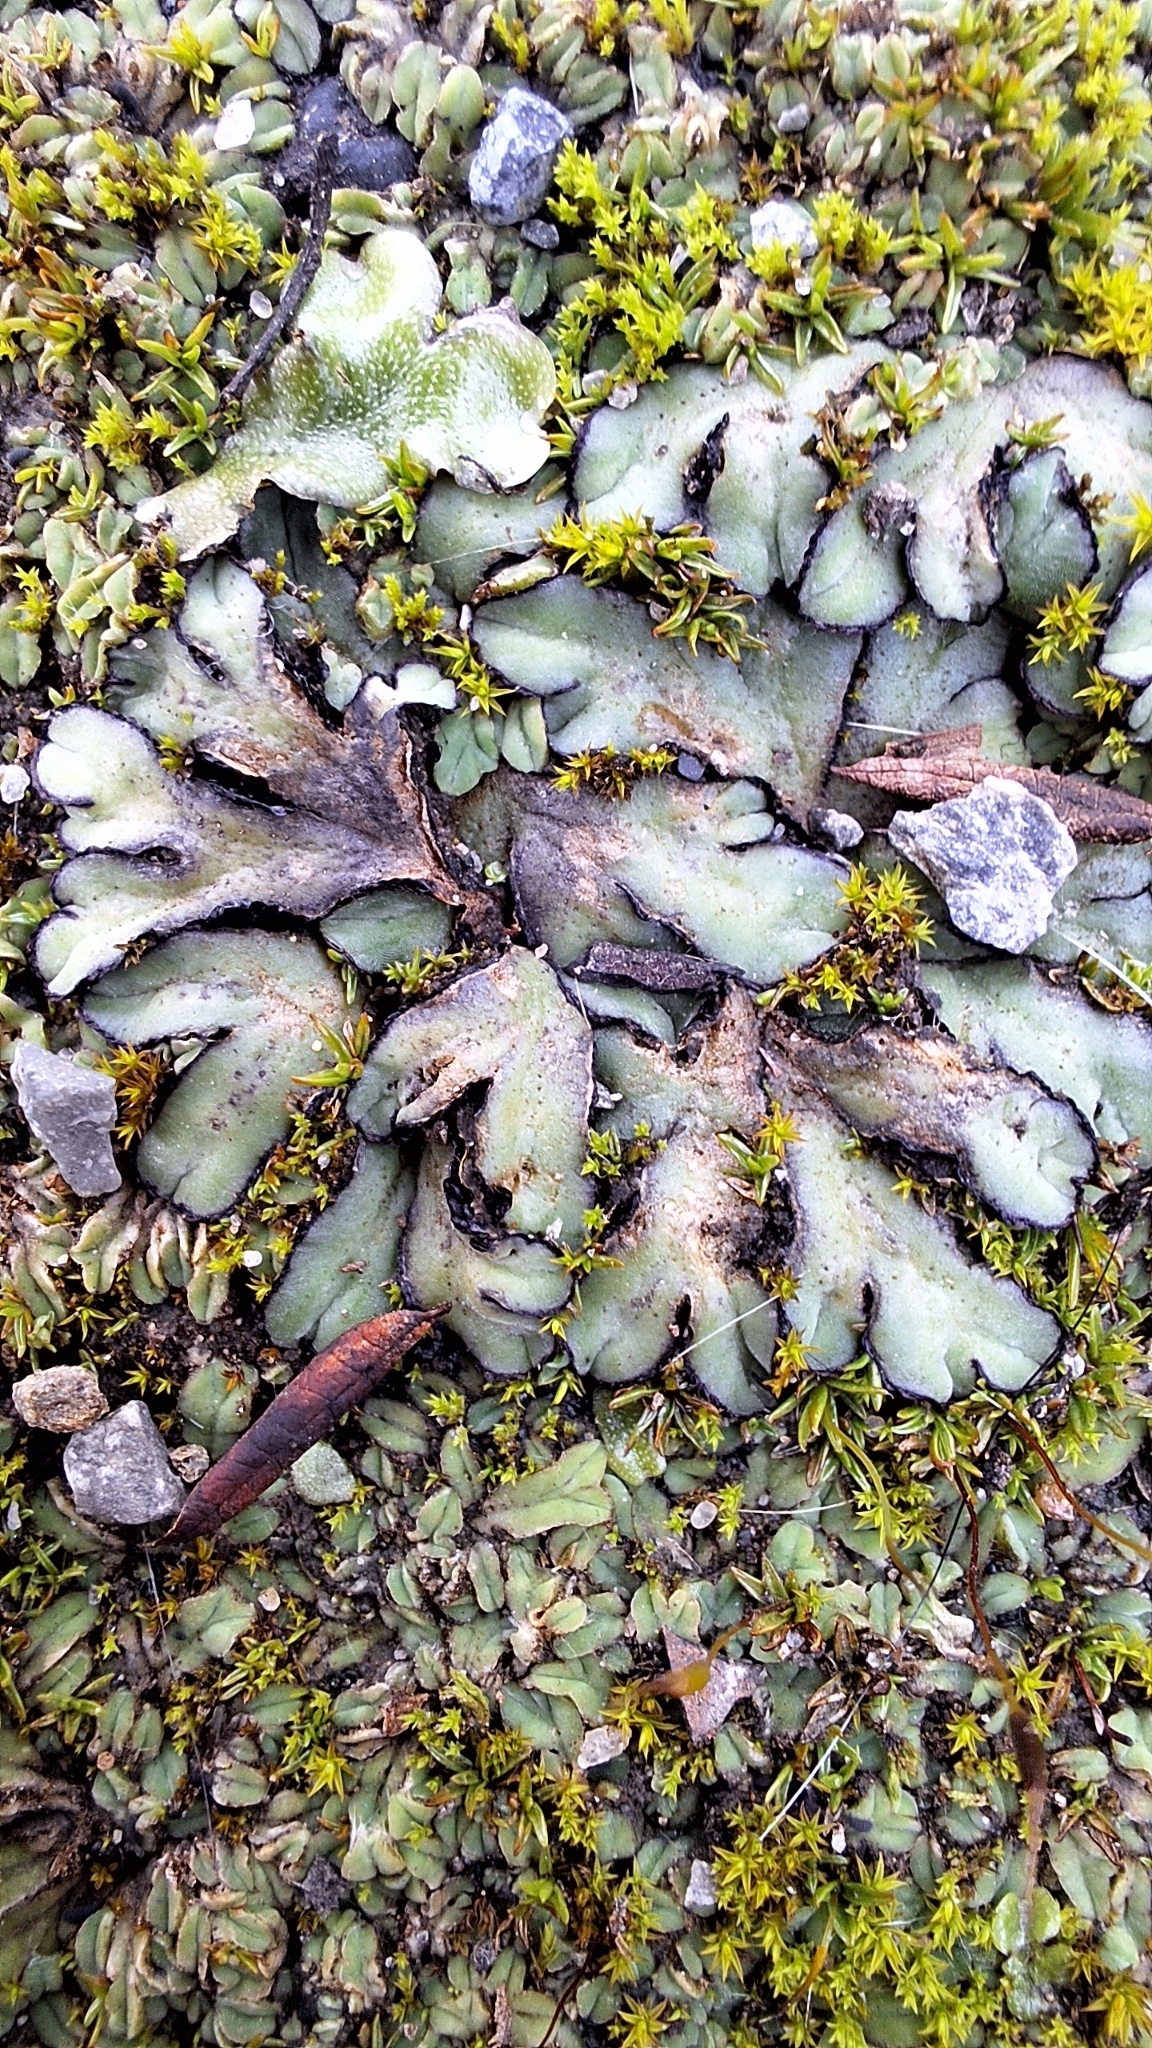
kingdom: Plantae
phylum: Marchantiophyta
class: Marchantiopsida
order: Marchantiales
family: Ricciaceae
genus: Riccia
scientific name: Riccia inflexa
